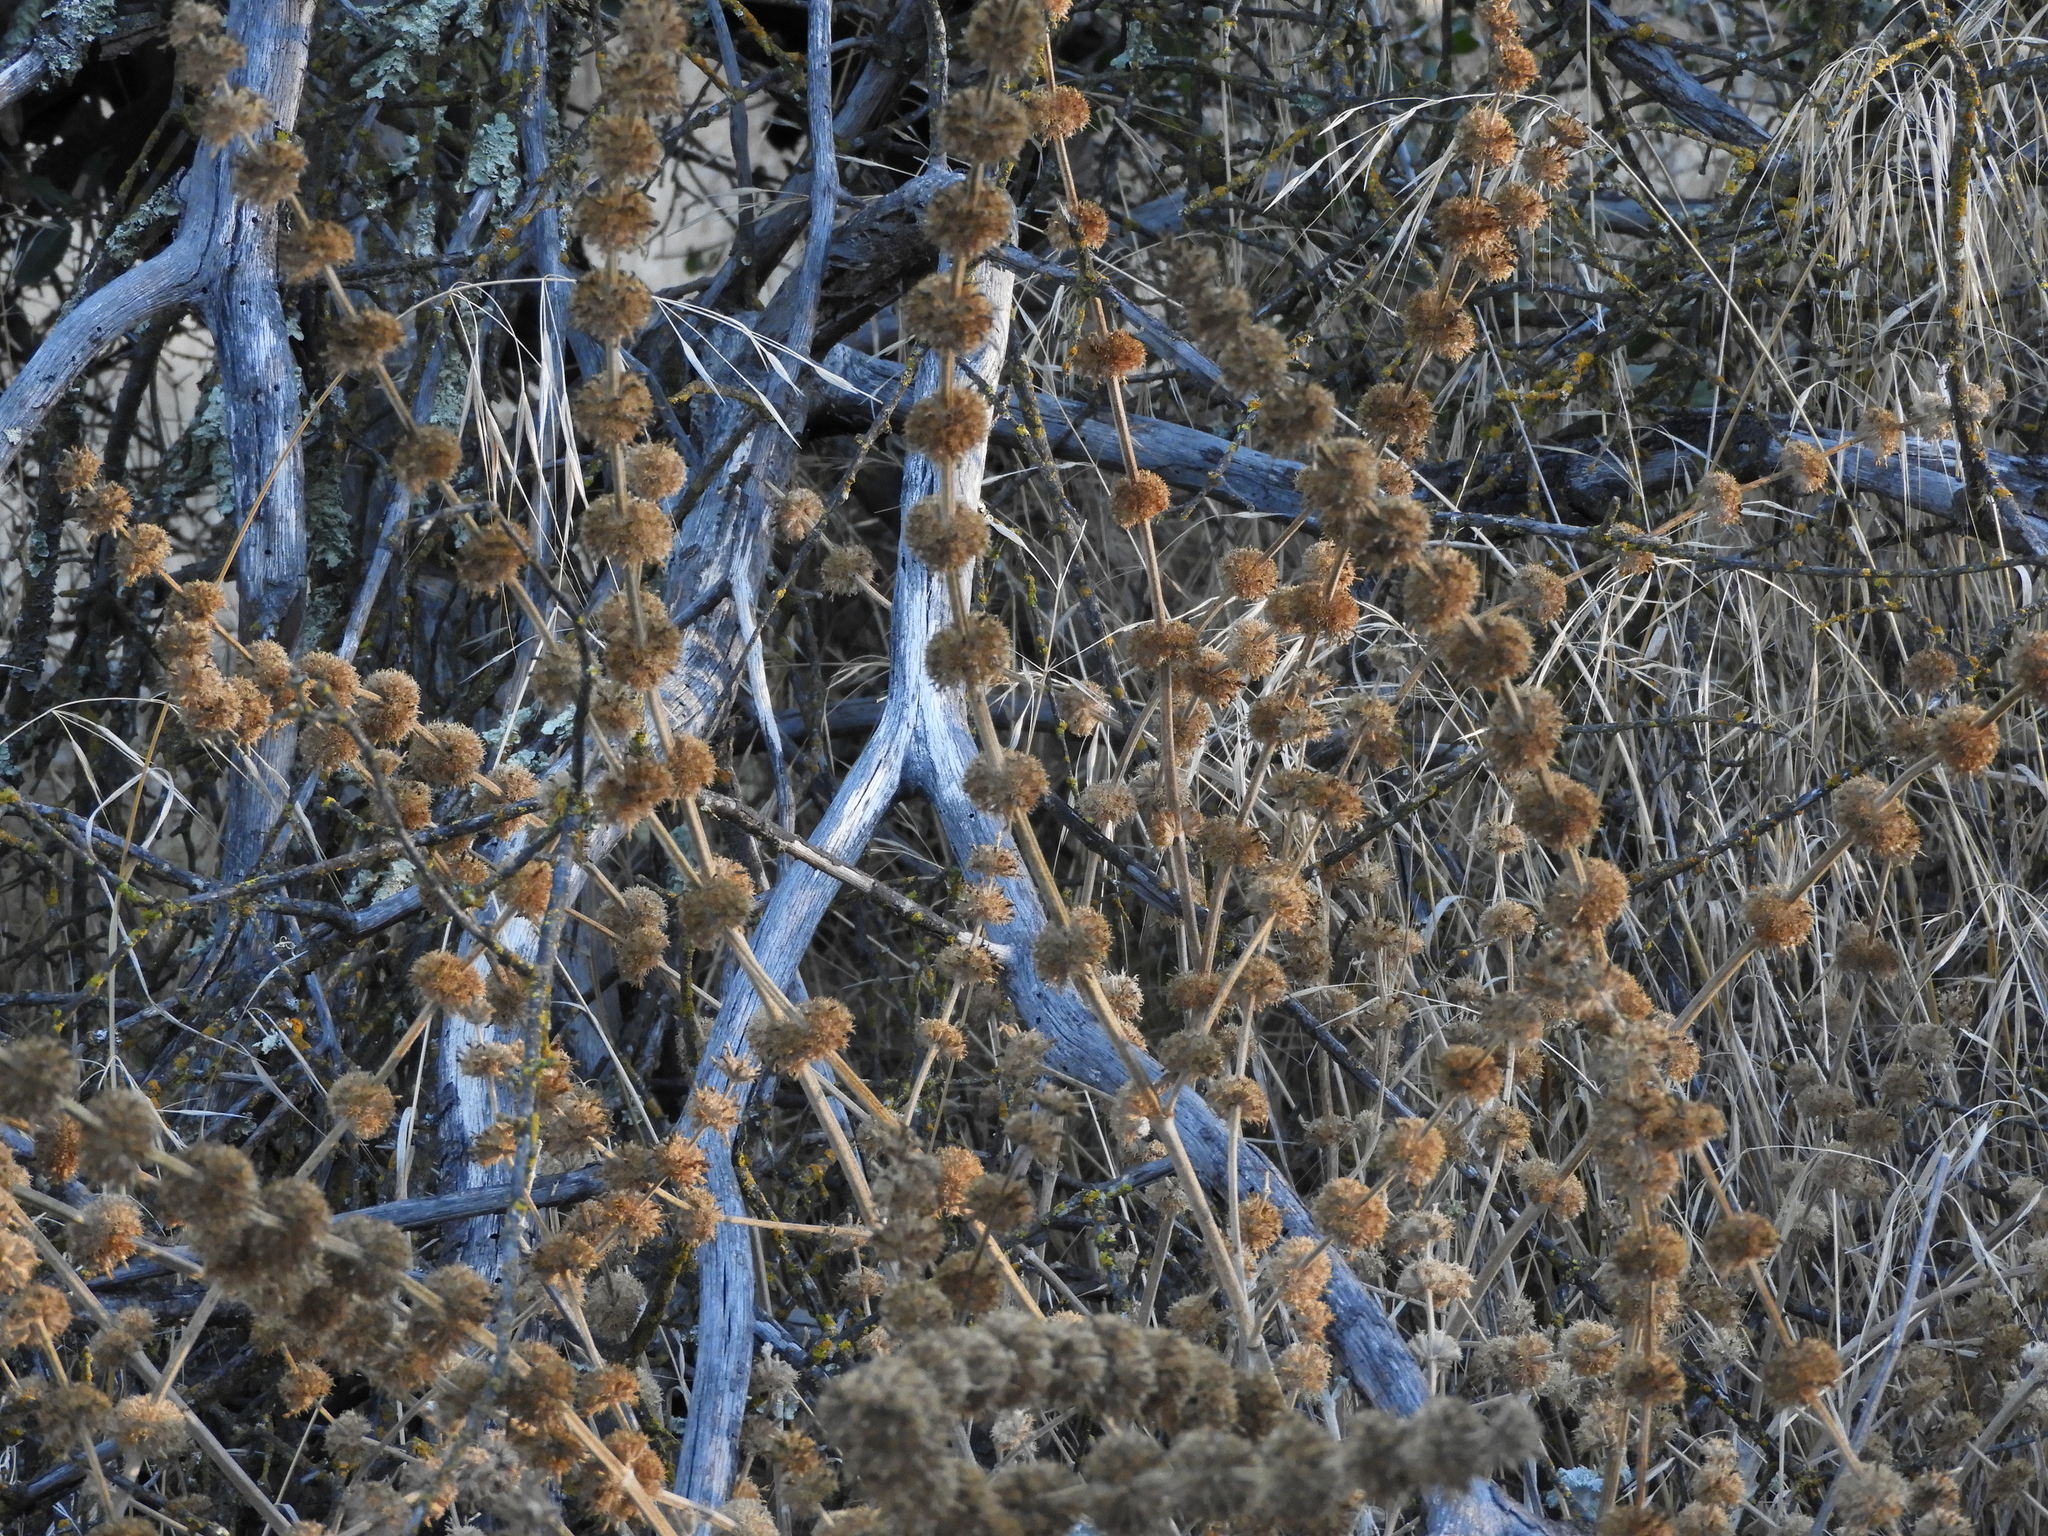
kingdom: Plantae
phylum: Tracheophyta
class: Magnoliopsida
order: Lamiales
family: Lamiaceae
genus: Marrubium
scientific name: Marrubium vulgare
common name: Horehound
